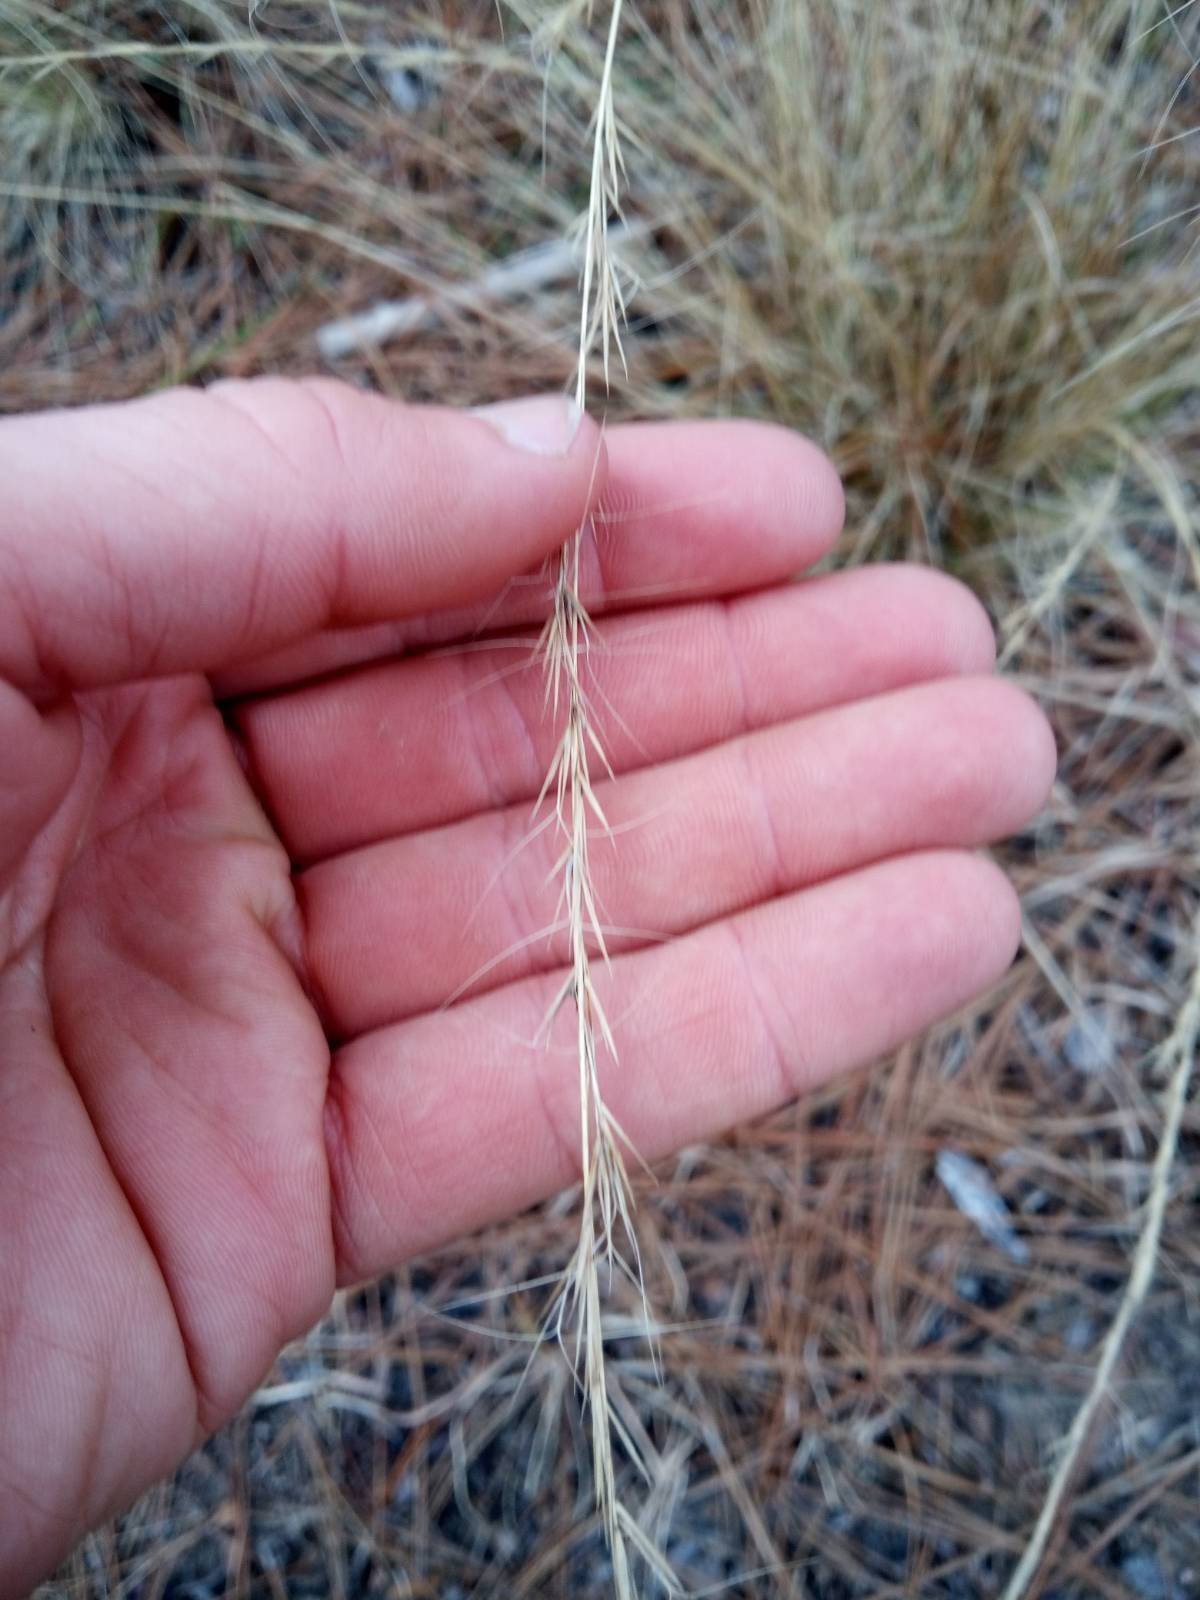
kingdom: Plantae
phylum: Tracheophyta
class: Liliopsida
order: Poales
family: Poaceae
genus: Aristida
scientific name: Aristida stricta
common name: Pineland three-awn
